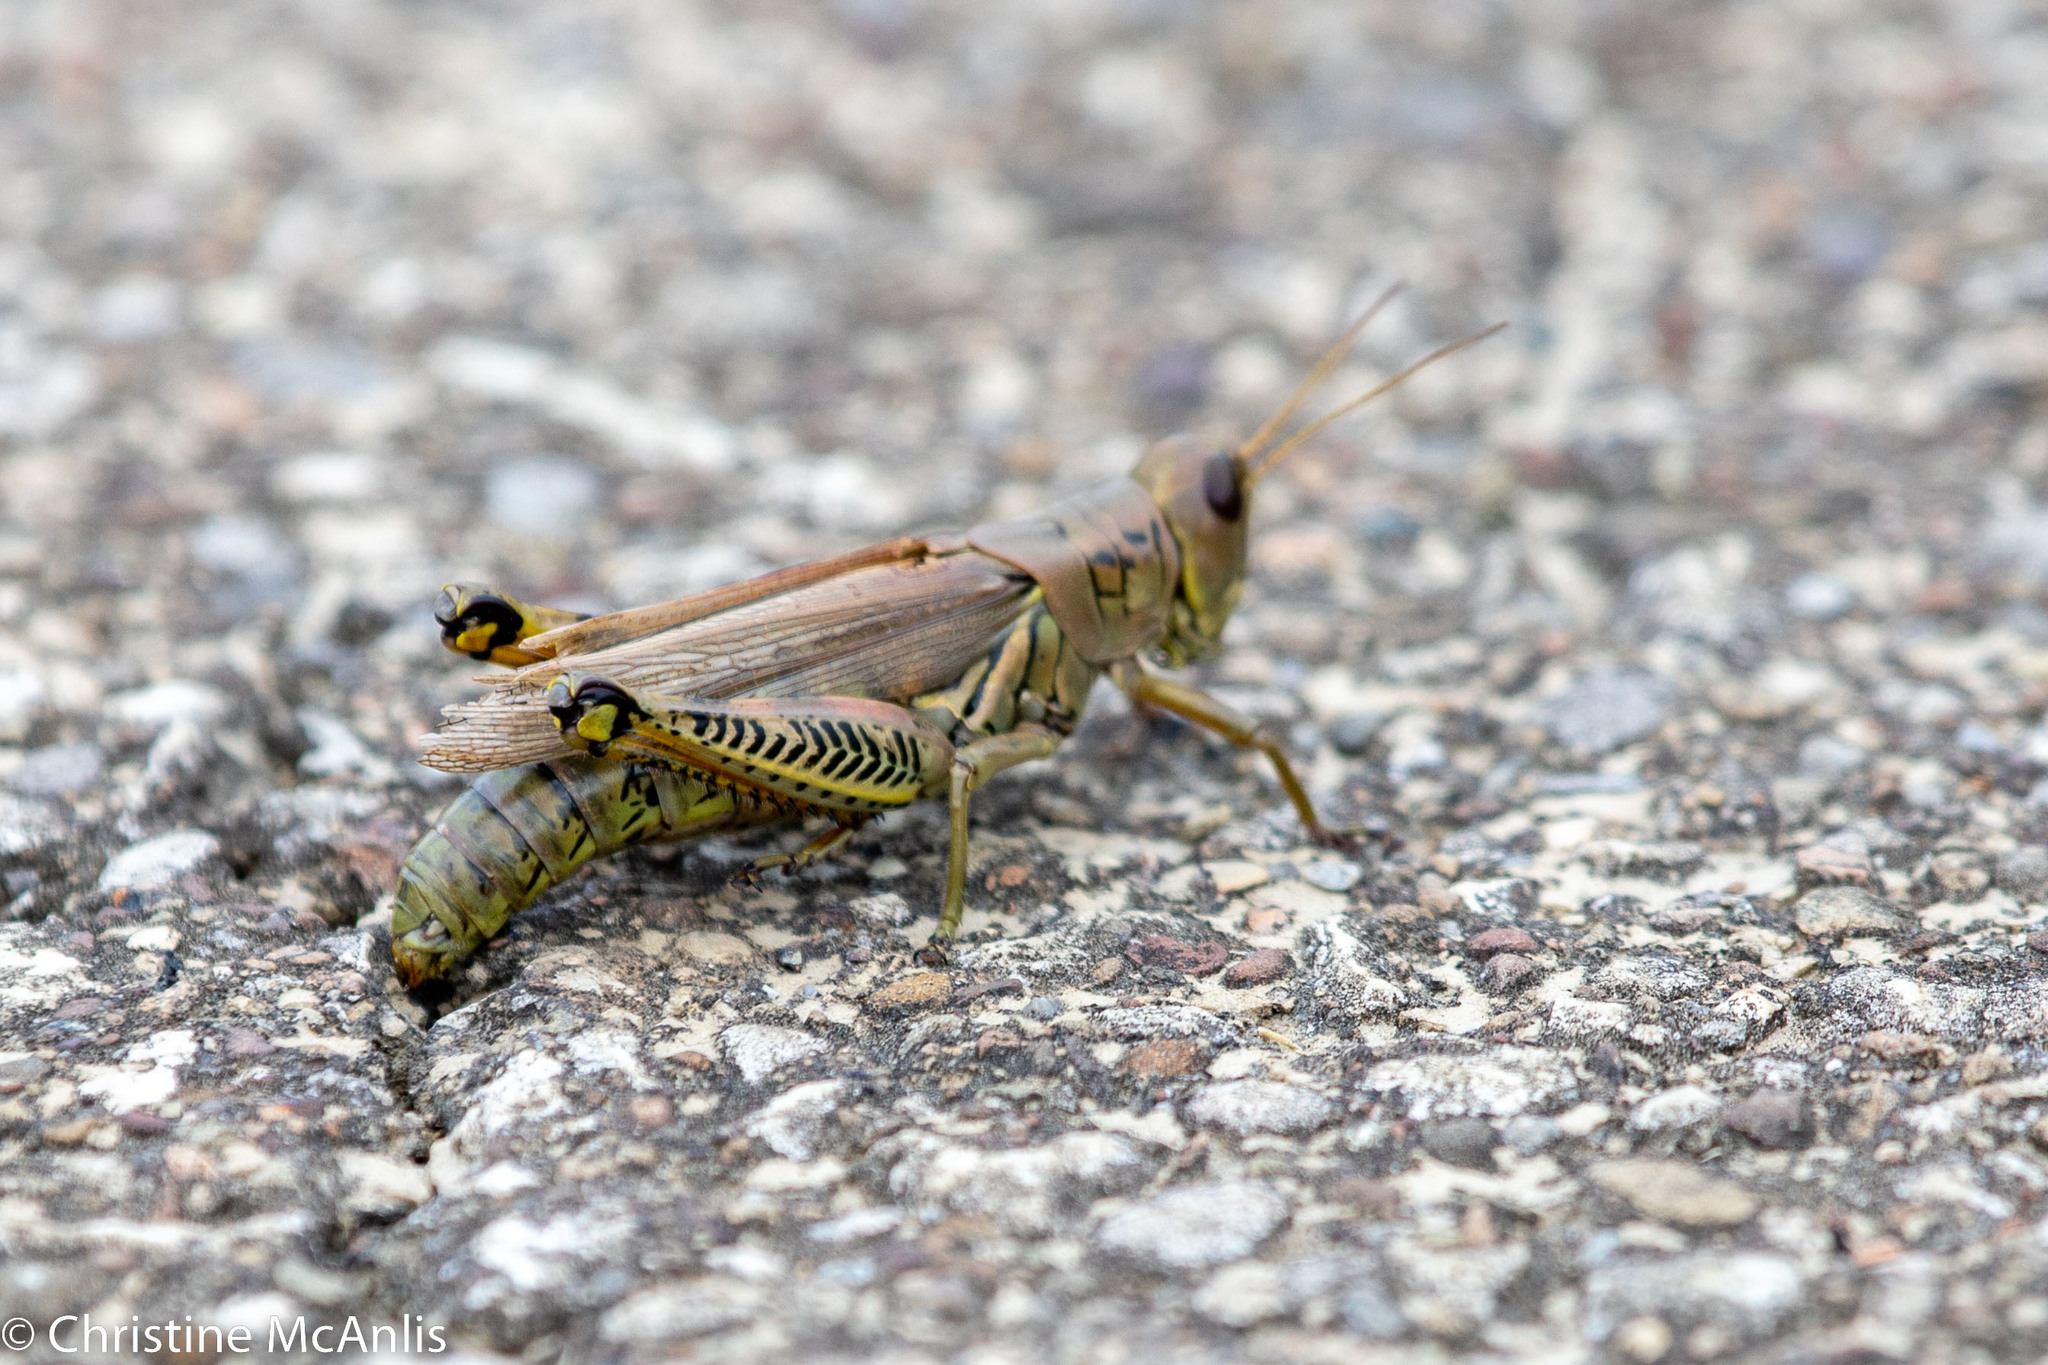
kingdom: Animalia
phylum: Arthropoda
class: Insecta
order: Orthoptera
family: Acrididae
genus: Melanoplus
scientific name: Melanoplus differentialis
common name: Differential grasshopper
